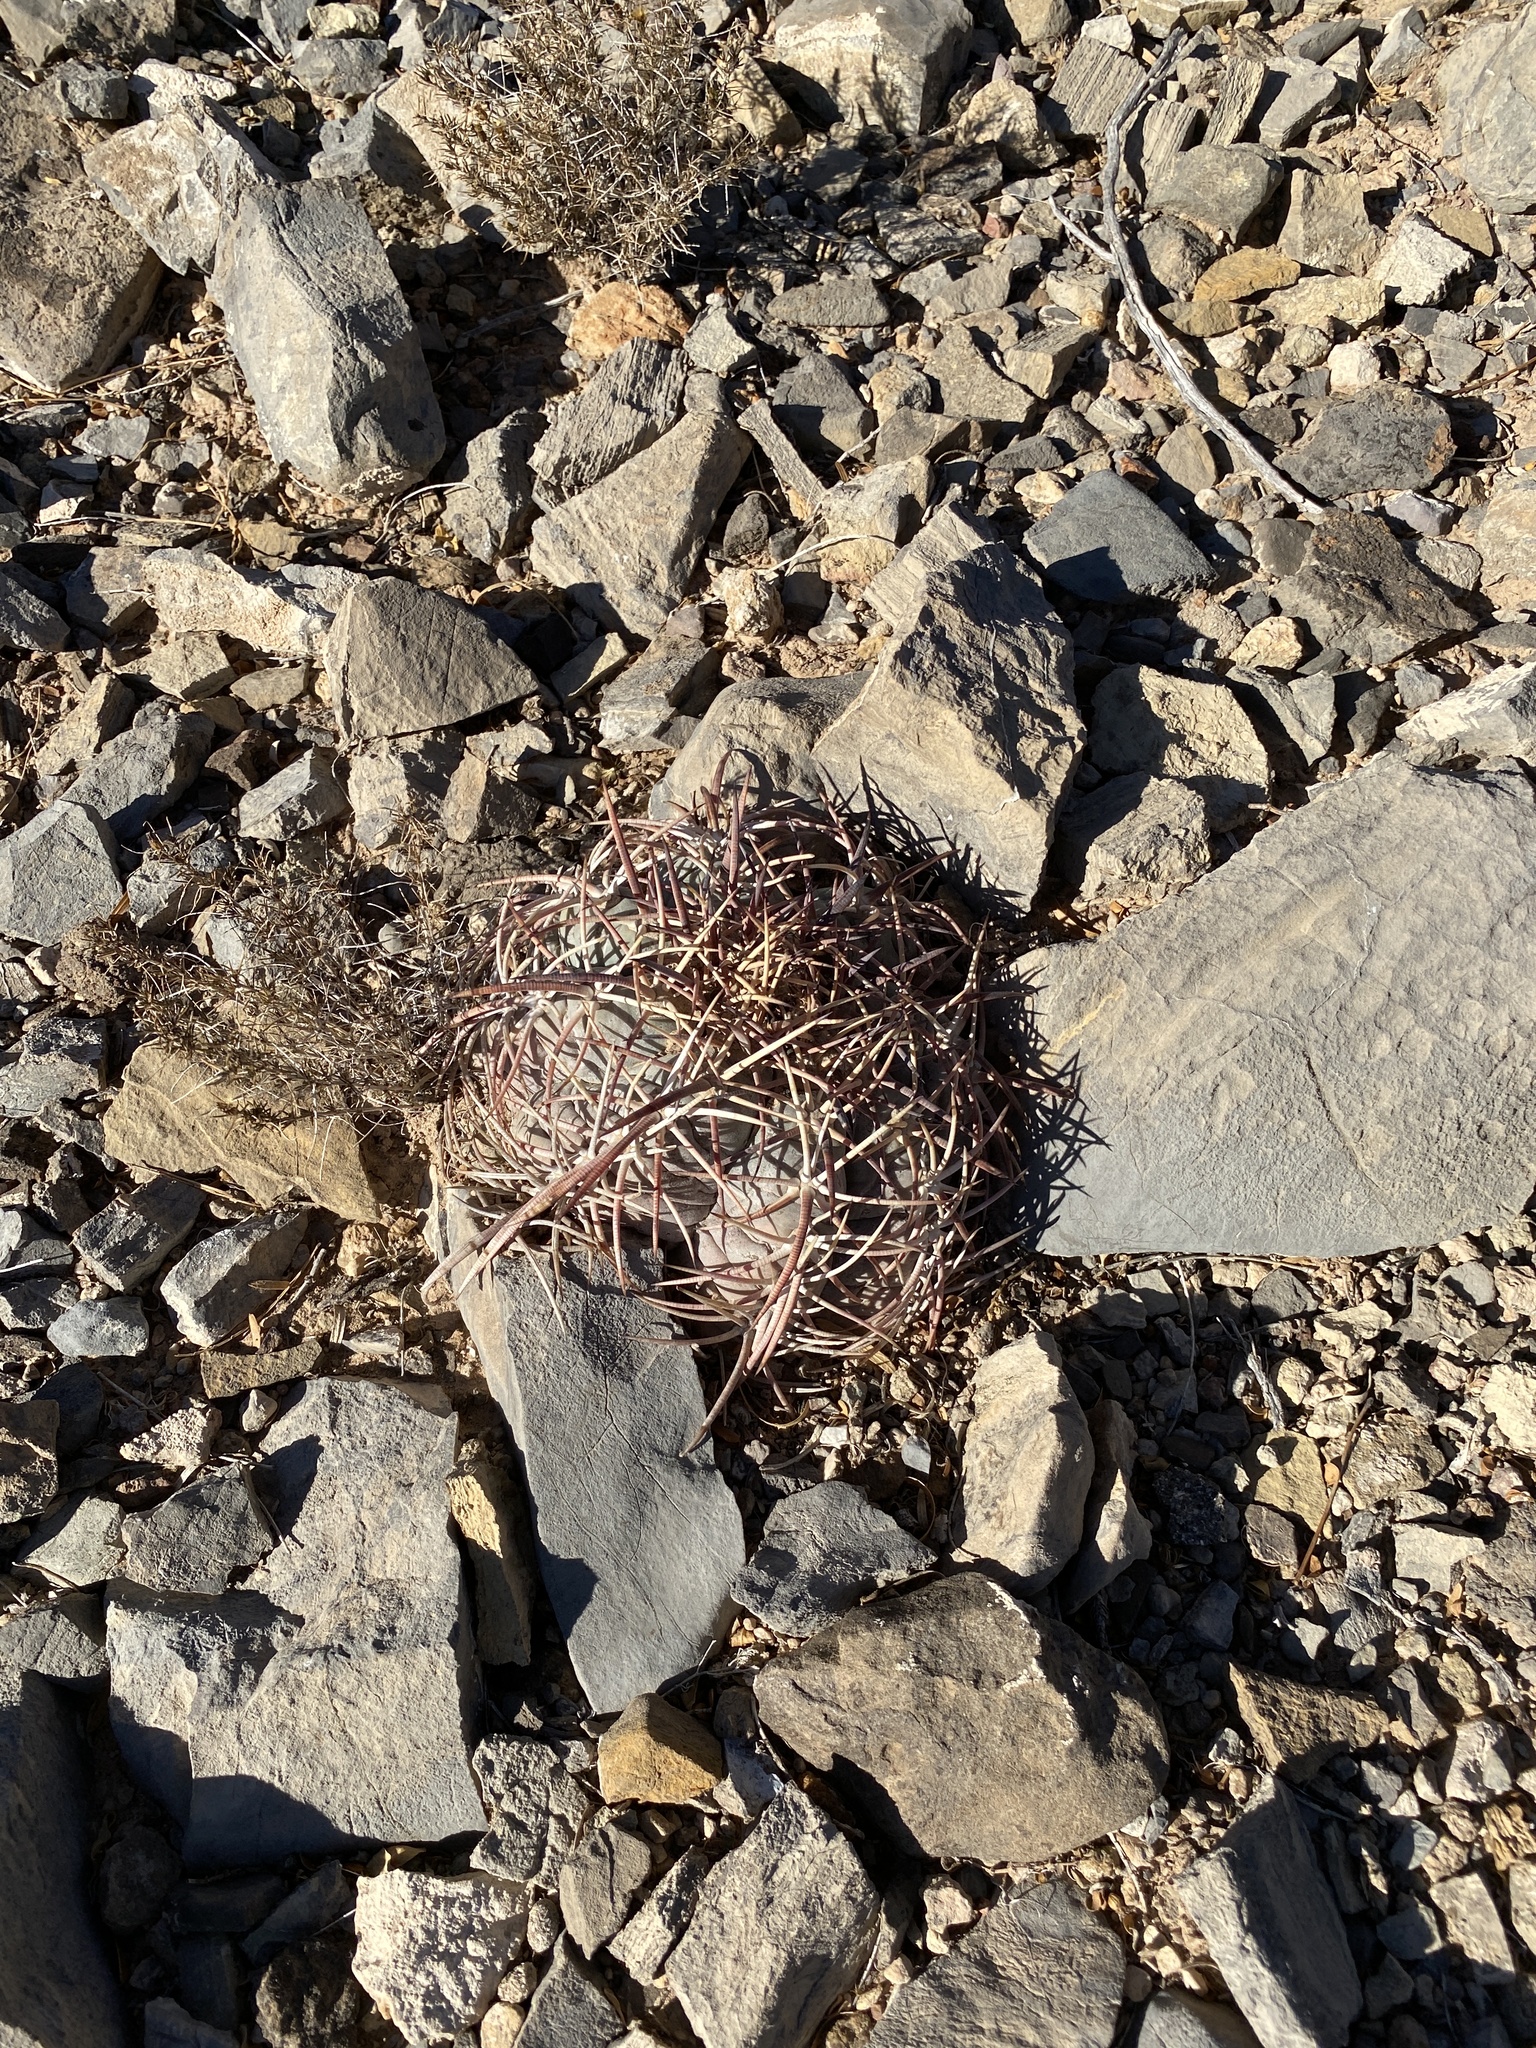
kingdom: Plantae
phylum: Tracheophyta
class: Magnoliopsida
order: Caryophyllales
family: Cactaceae
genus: Echinocactus
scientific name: Echinocactus horizonthalonius
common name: Devilshead
